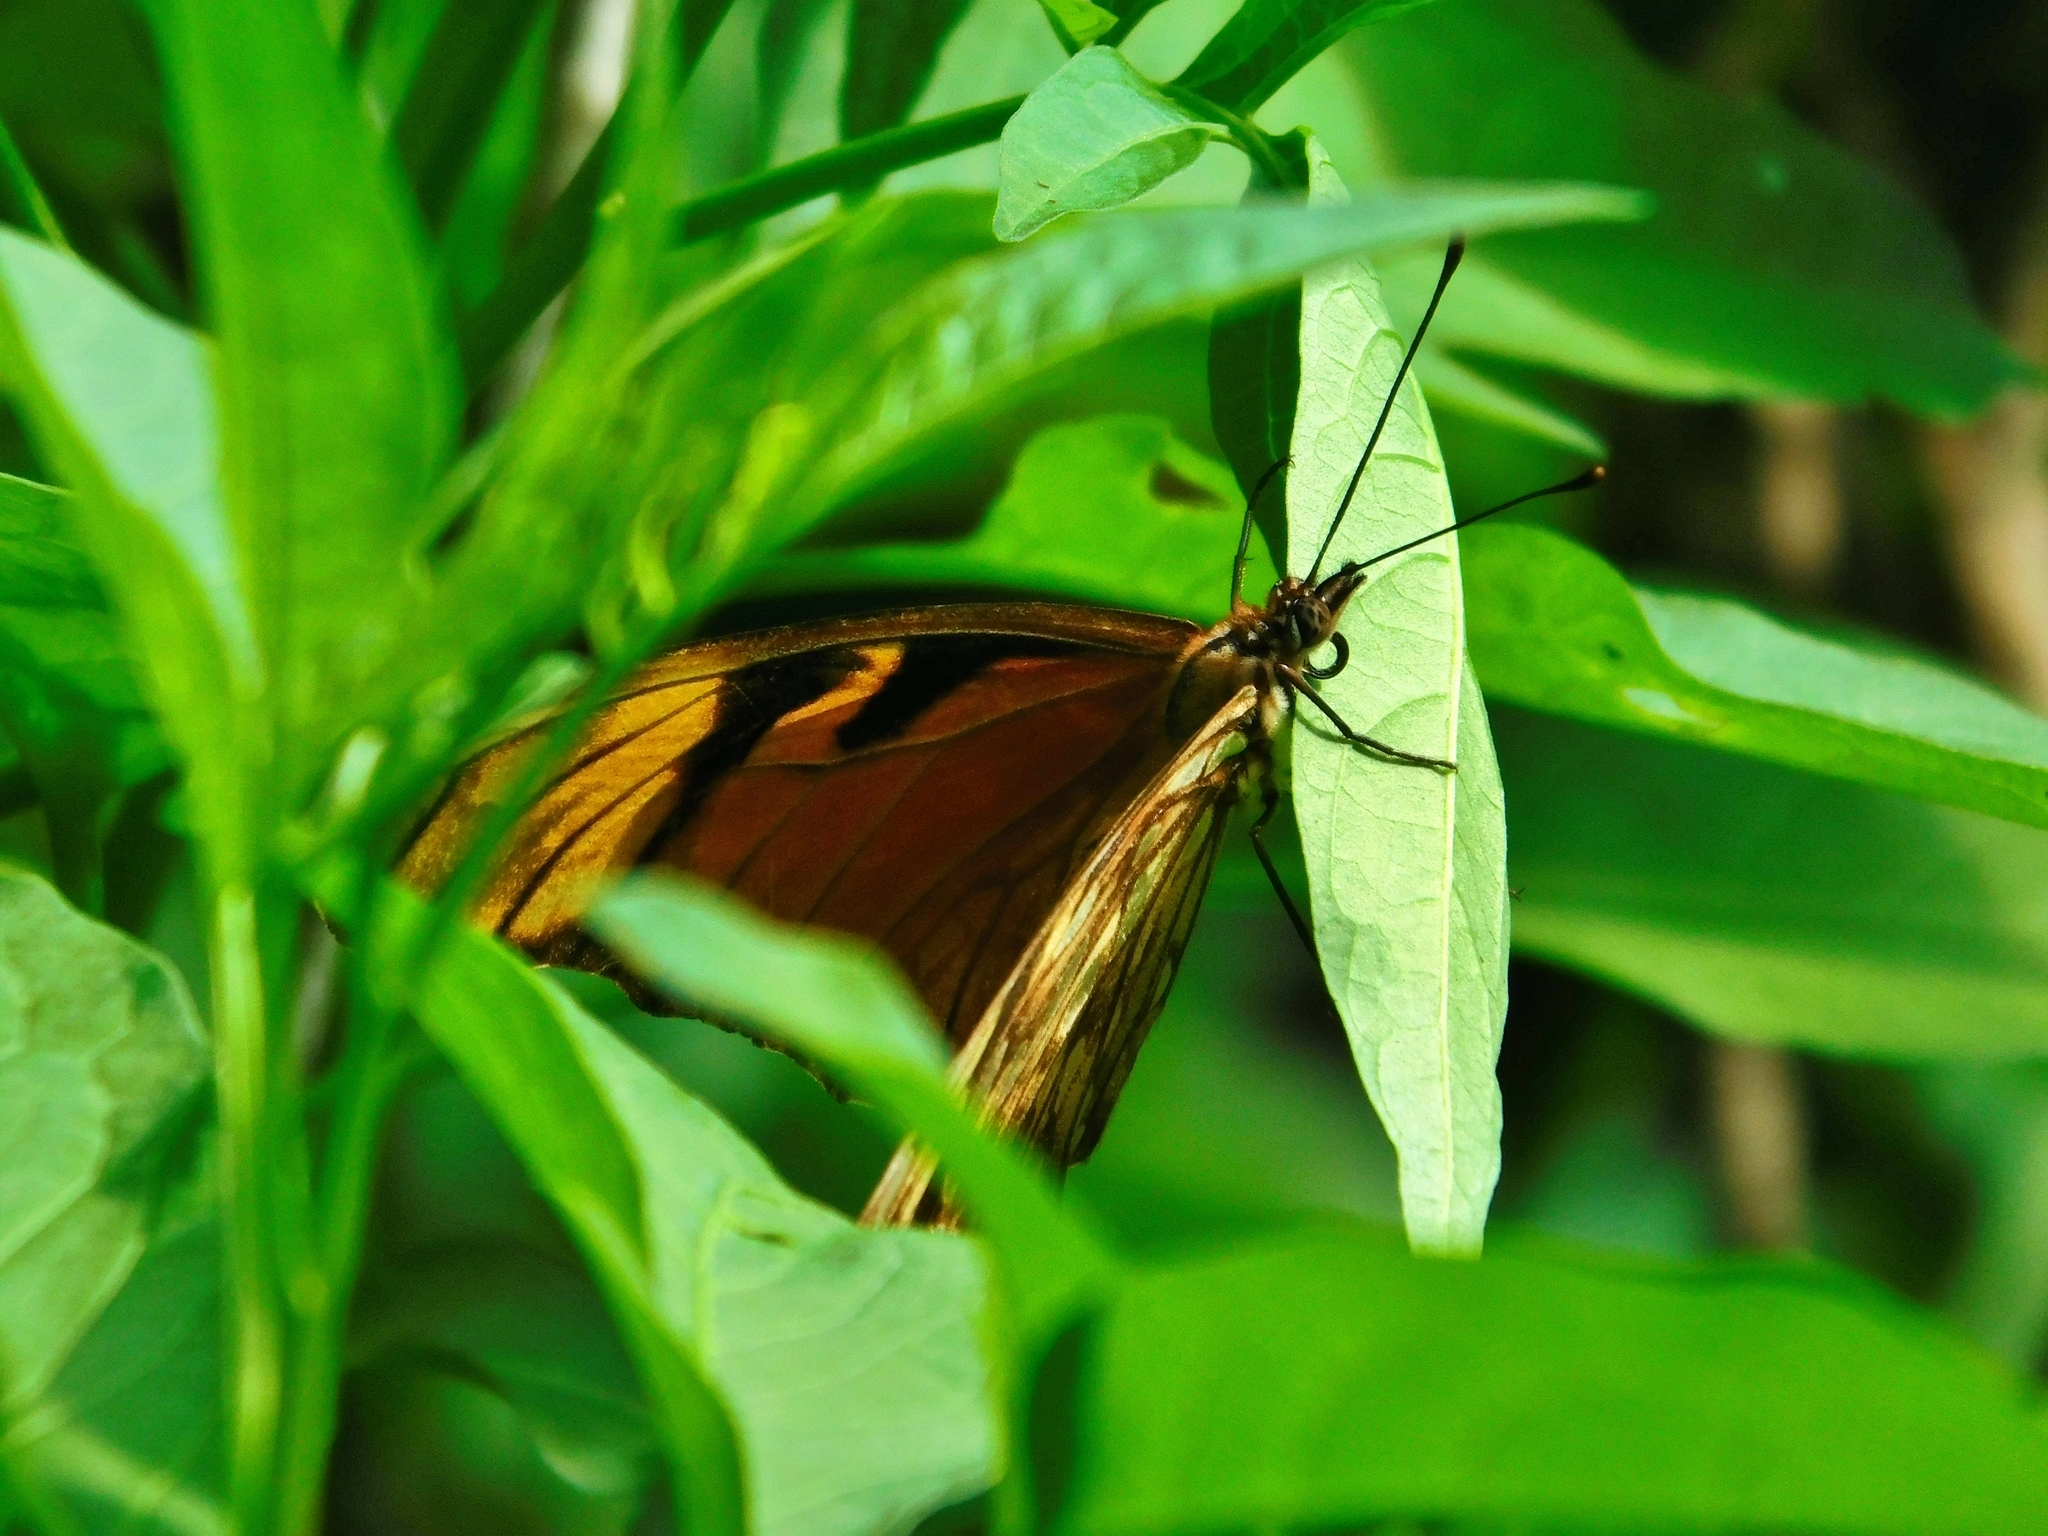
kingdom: Animalia
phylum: Arthropoda
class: Insecta
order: Lepidoptera
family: Nymphalidae
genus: Dione
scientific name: Dione juno
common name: Juno silverspot
